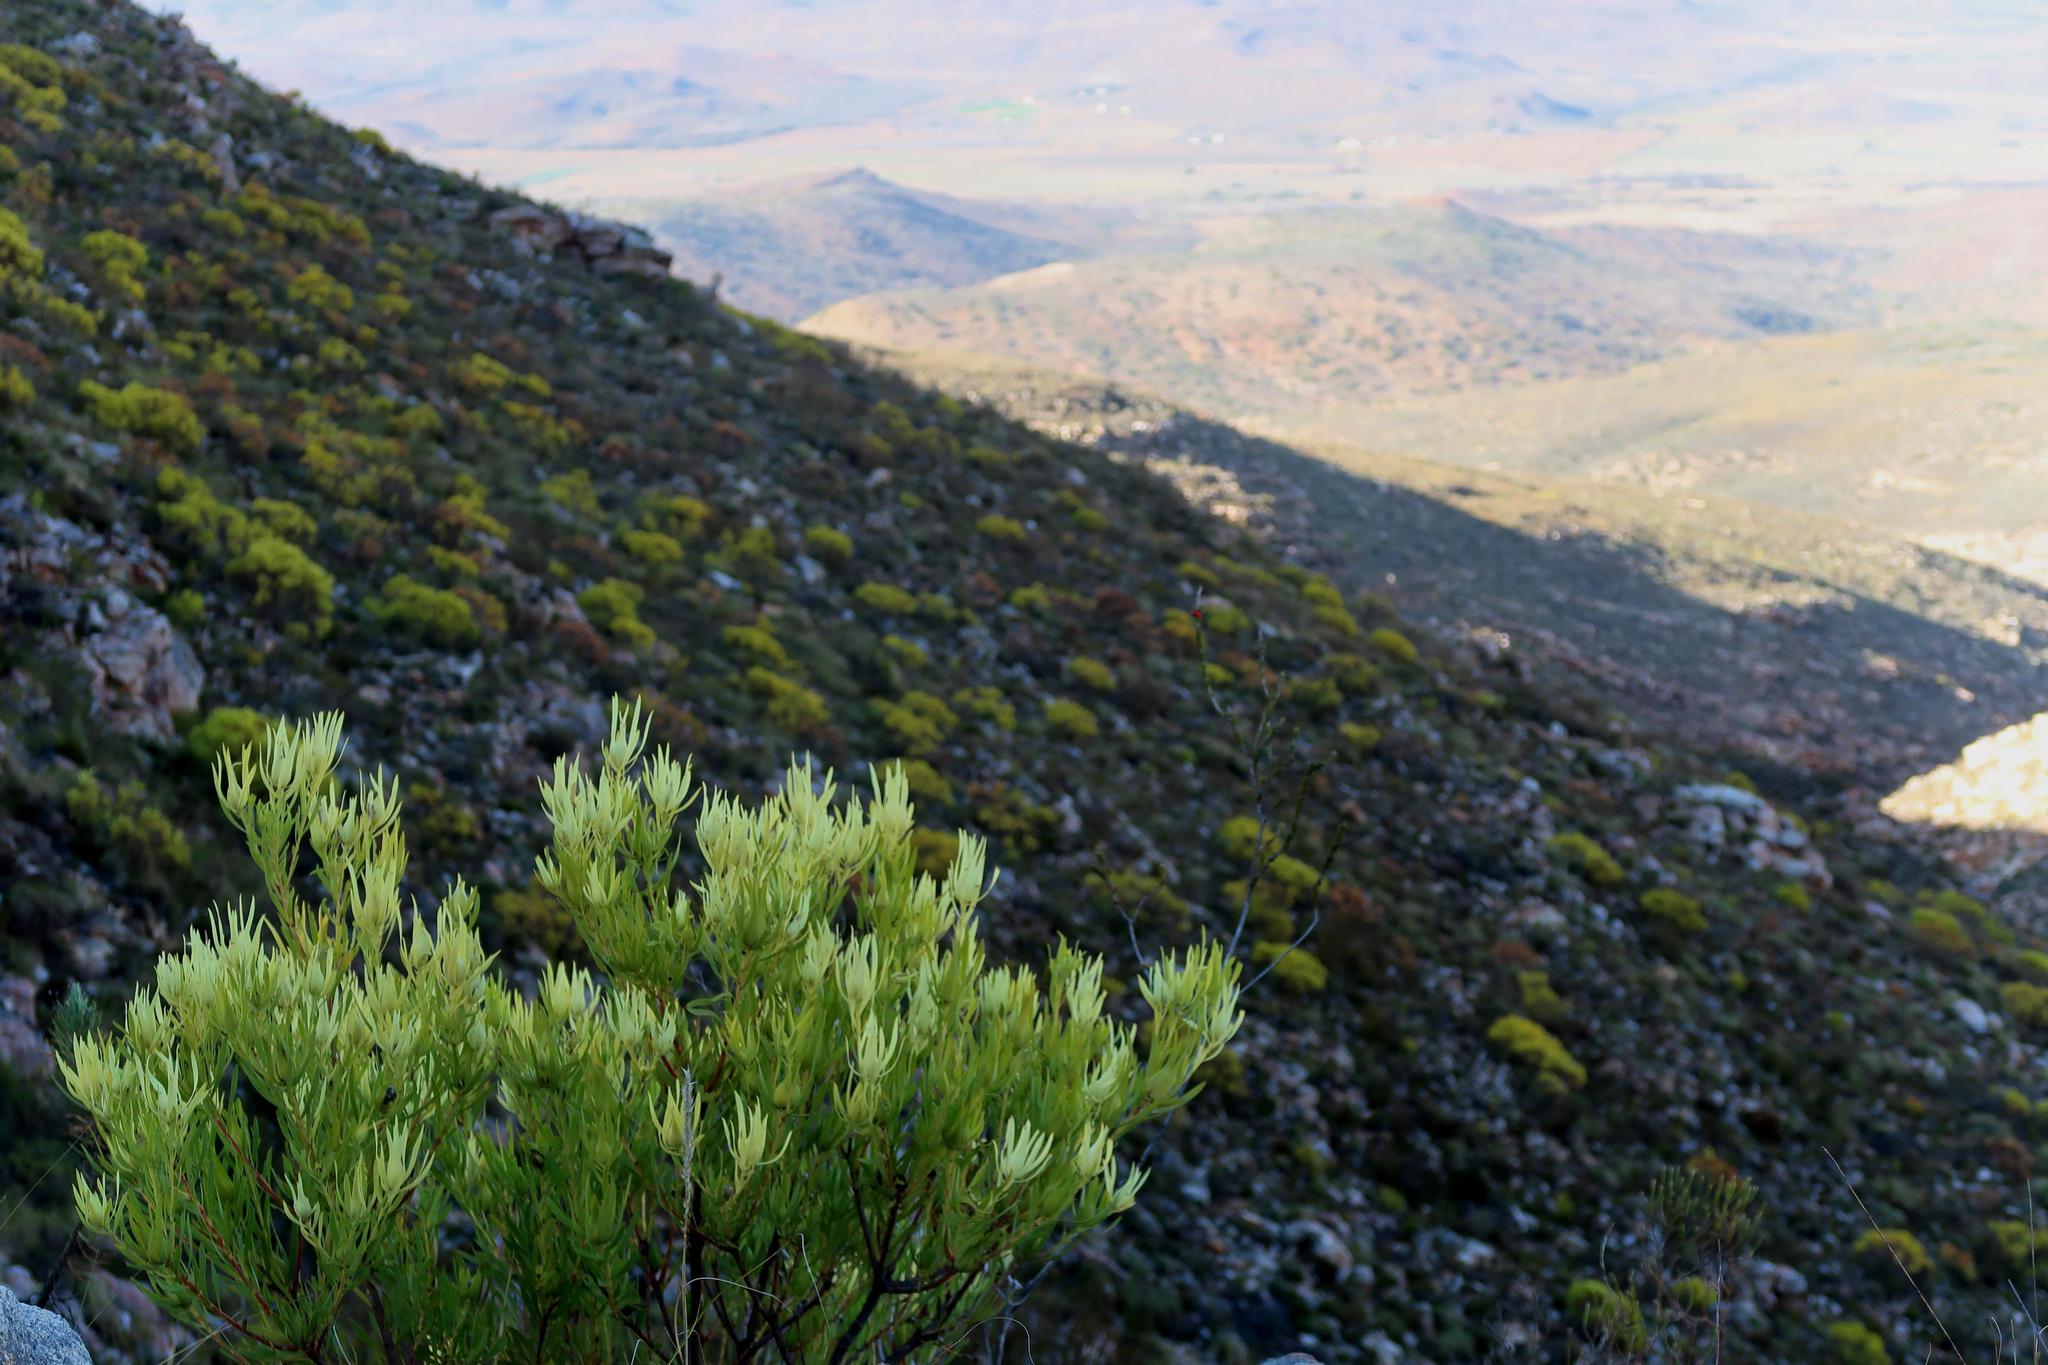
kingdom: Plantae
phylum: Tracheophyta
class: Magnoliopsida
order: Proteales
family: Proteaceae
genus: Leucadendron
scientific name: Leucadendron salignum
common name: Common sunshine conebush
